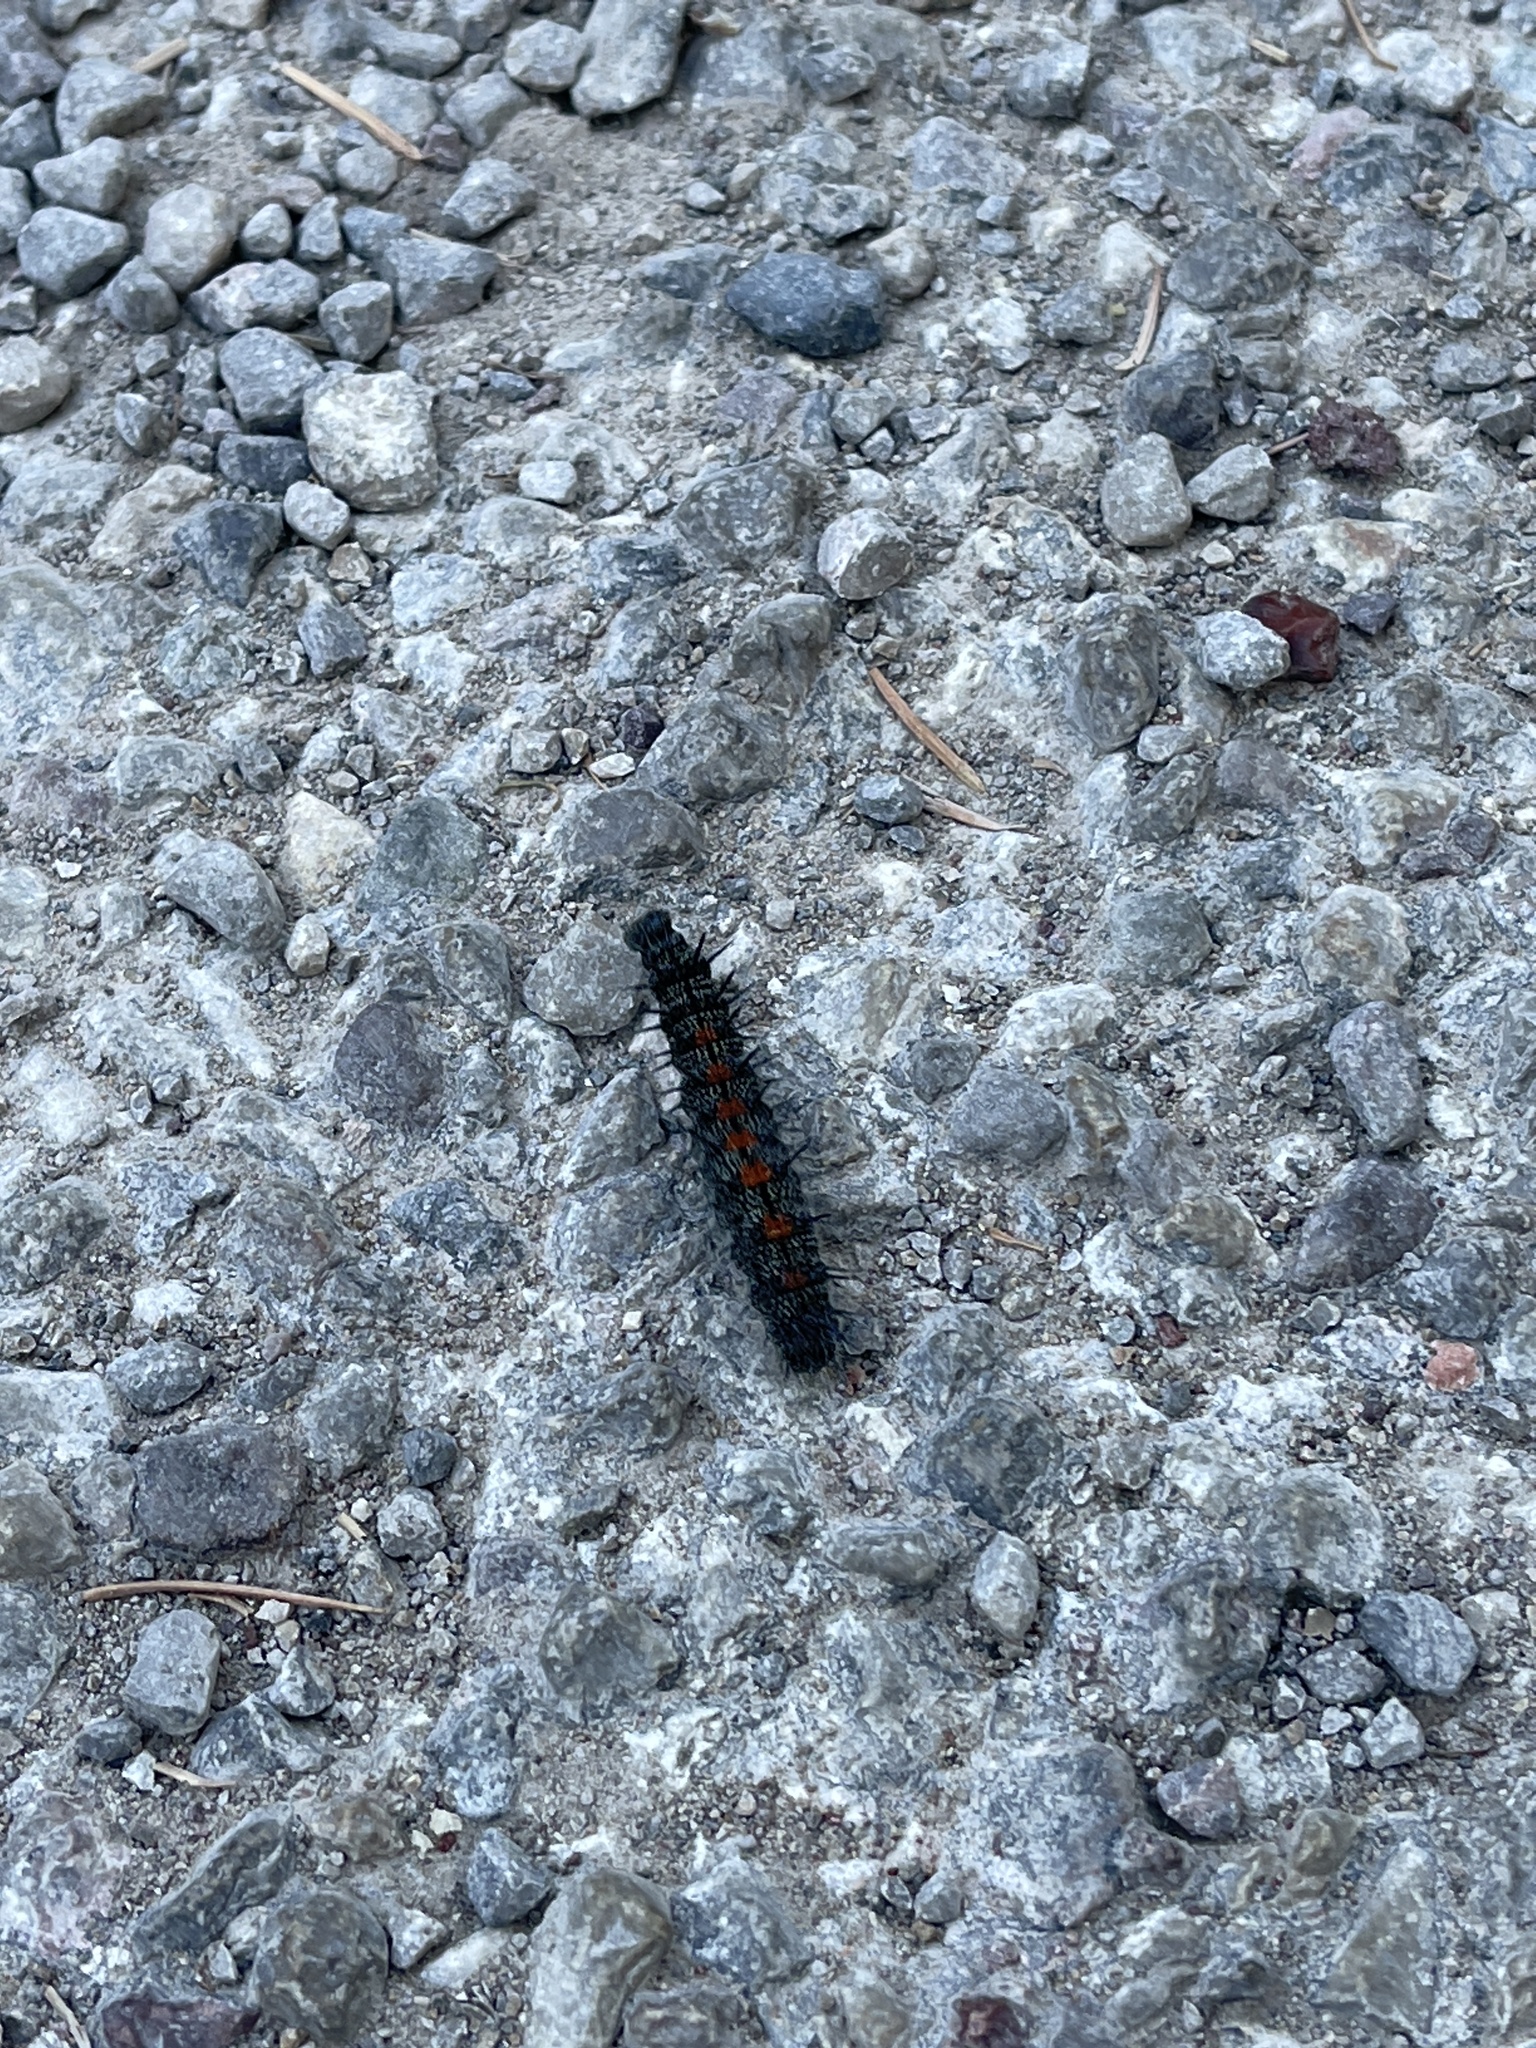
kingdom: Animalia
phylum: Arthropoda
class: Insecta
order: Lepidoptera
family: Nymphalidae
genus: Nymphalis
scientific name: Nymphalis antiopa
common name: Camberwell beauty
